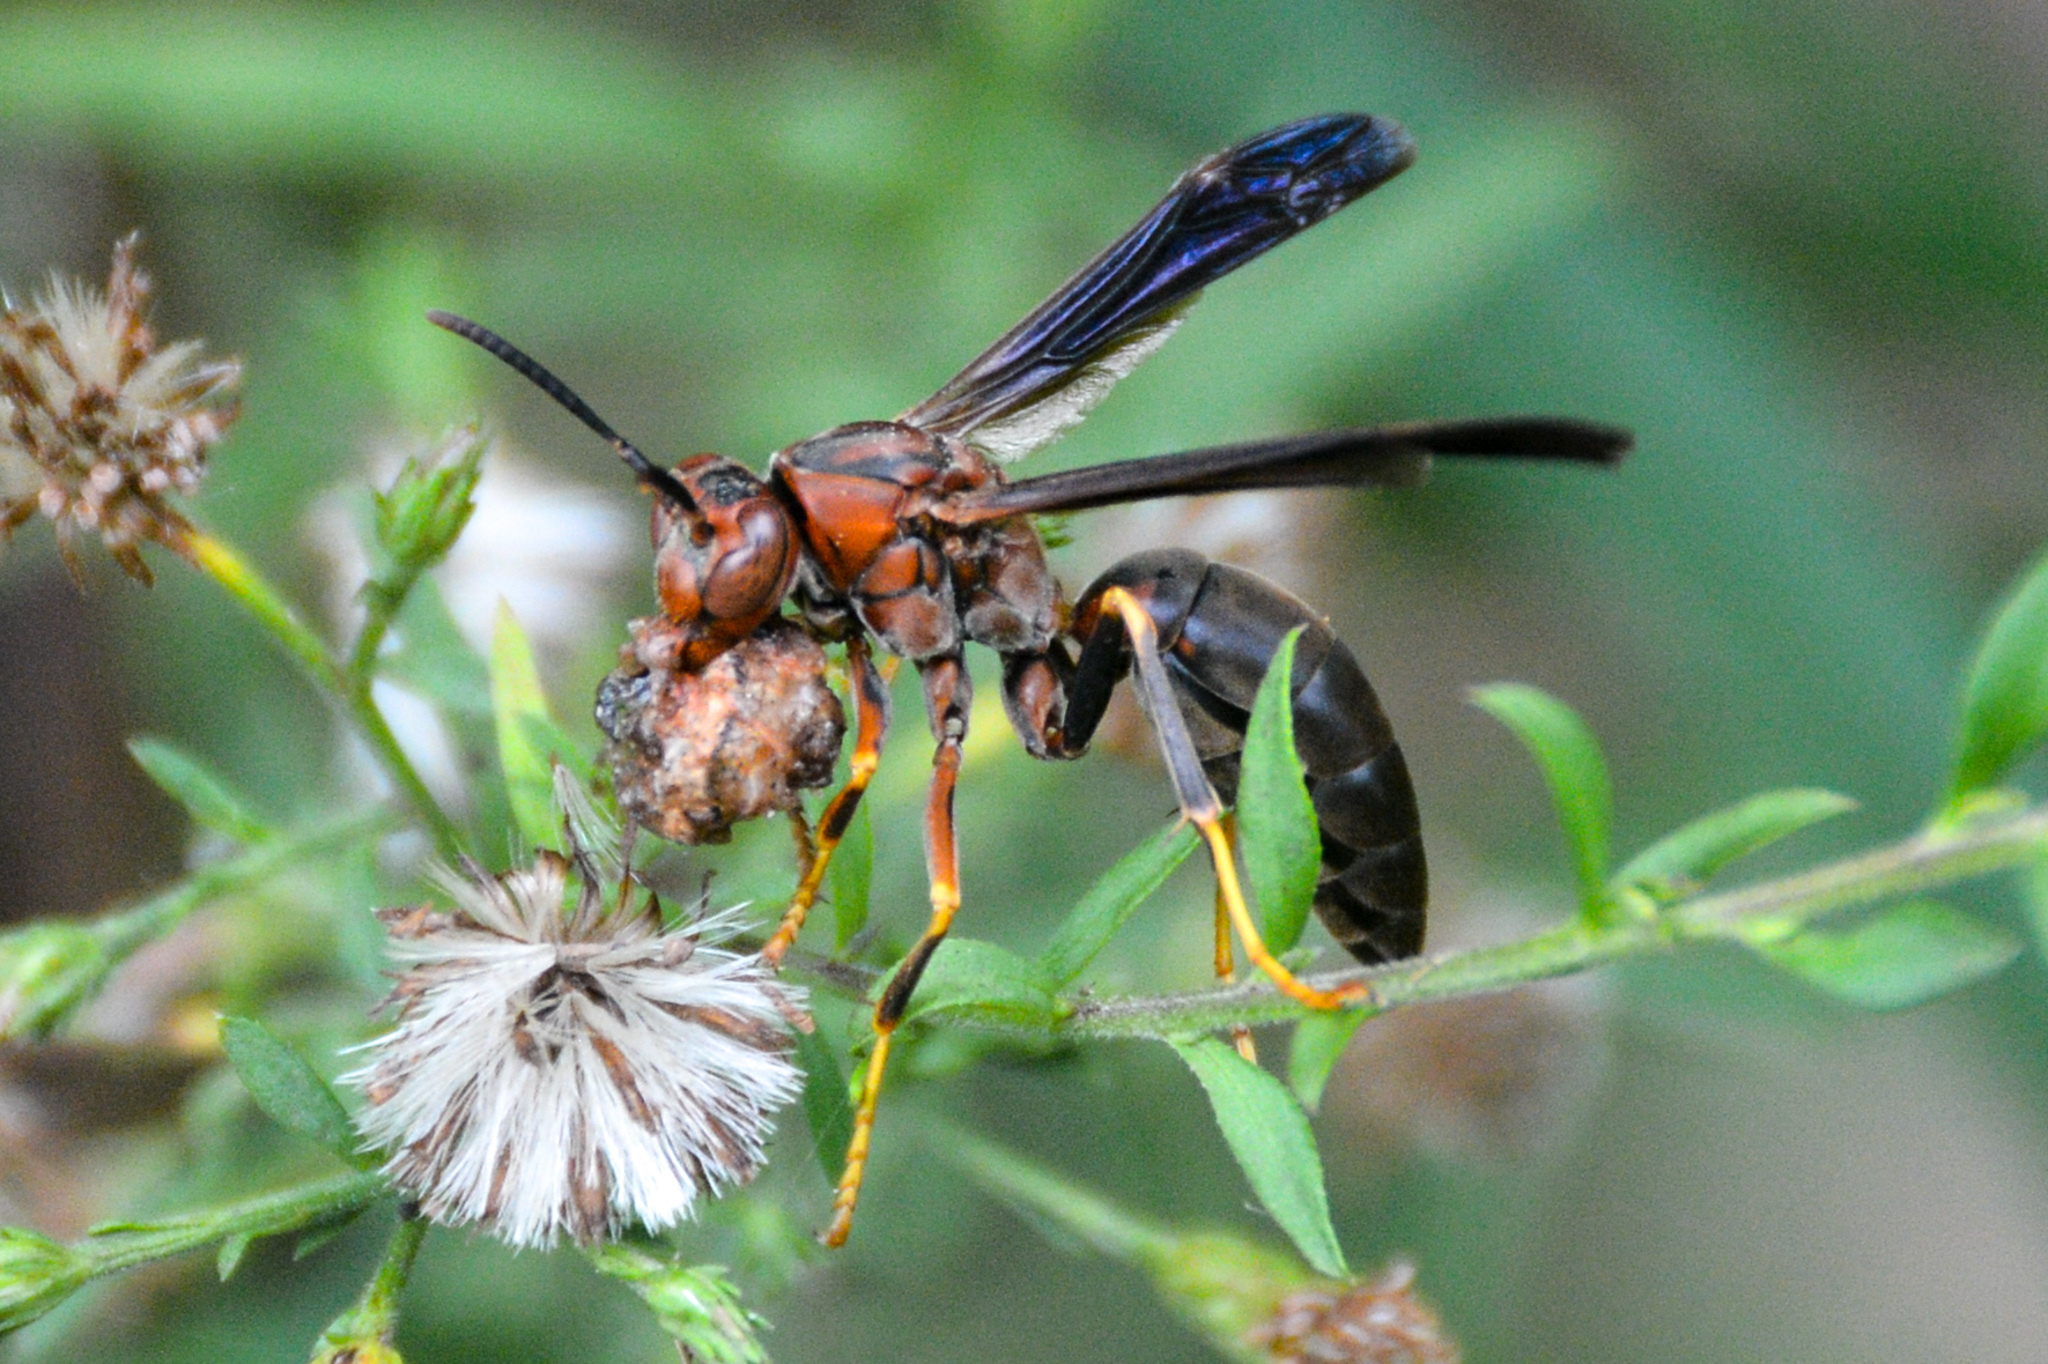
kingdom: Animalia
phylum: Arthropoda
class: Insecta
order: Hymenoptera
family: Eumenidae
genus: Polistes
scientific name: Polistes metricus
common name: Metric paper wasp
